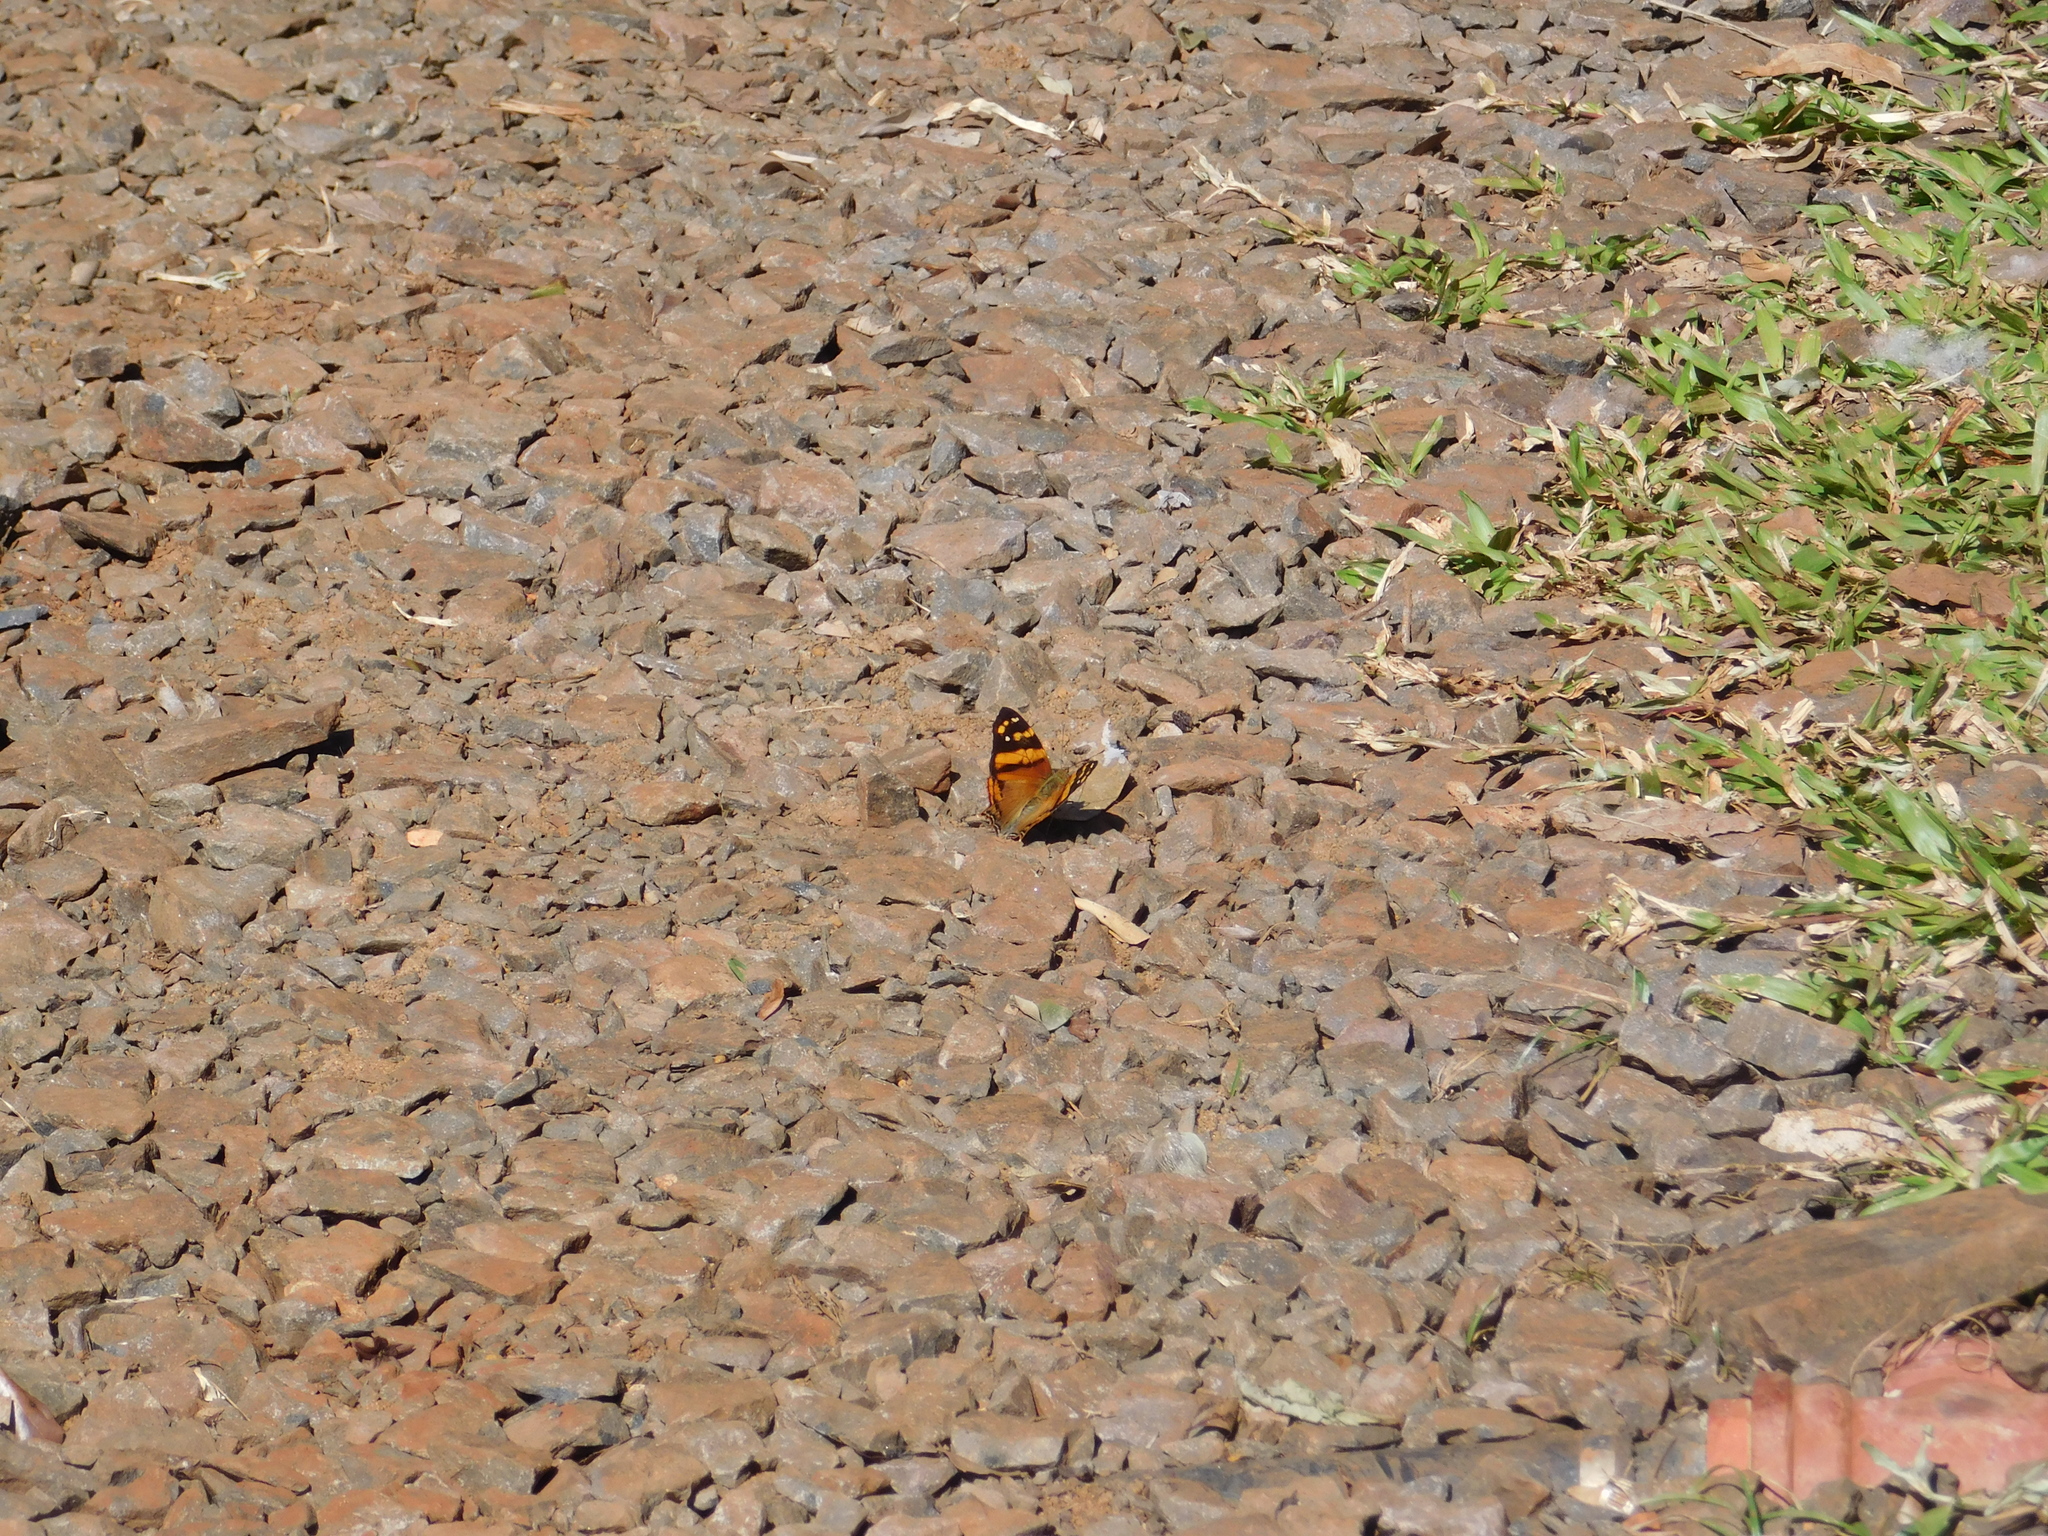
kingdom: Animalia
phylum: Arthropoda
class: Insecta
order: Lepidoptera
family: Nymphalidae
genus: Hypanartia
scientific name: Hypanartia lethe
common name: Orange mapwing
